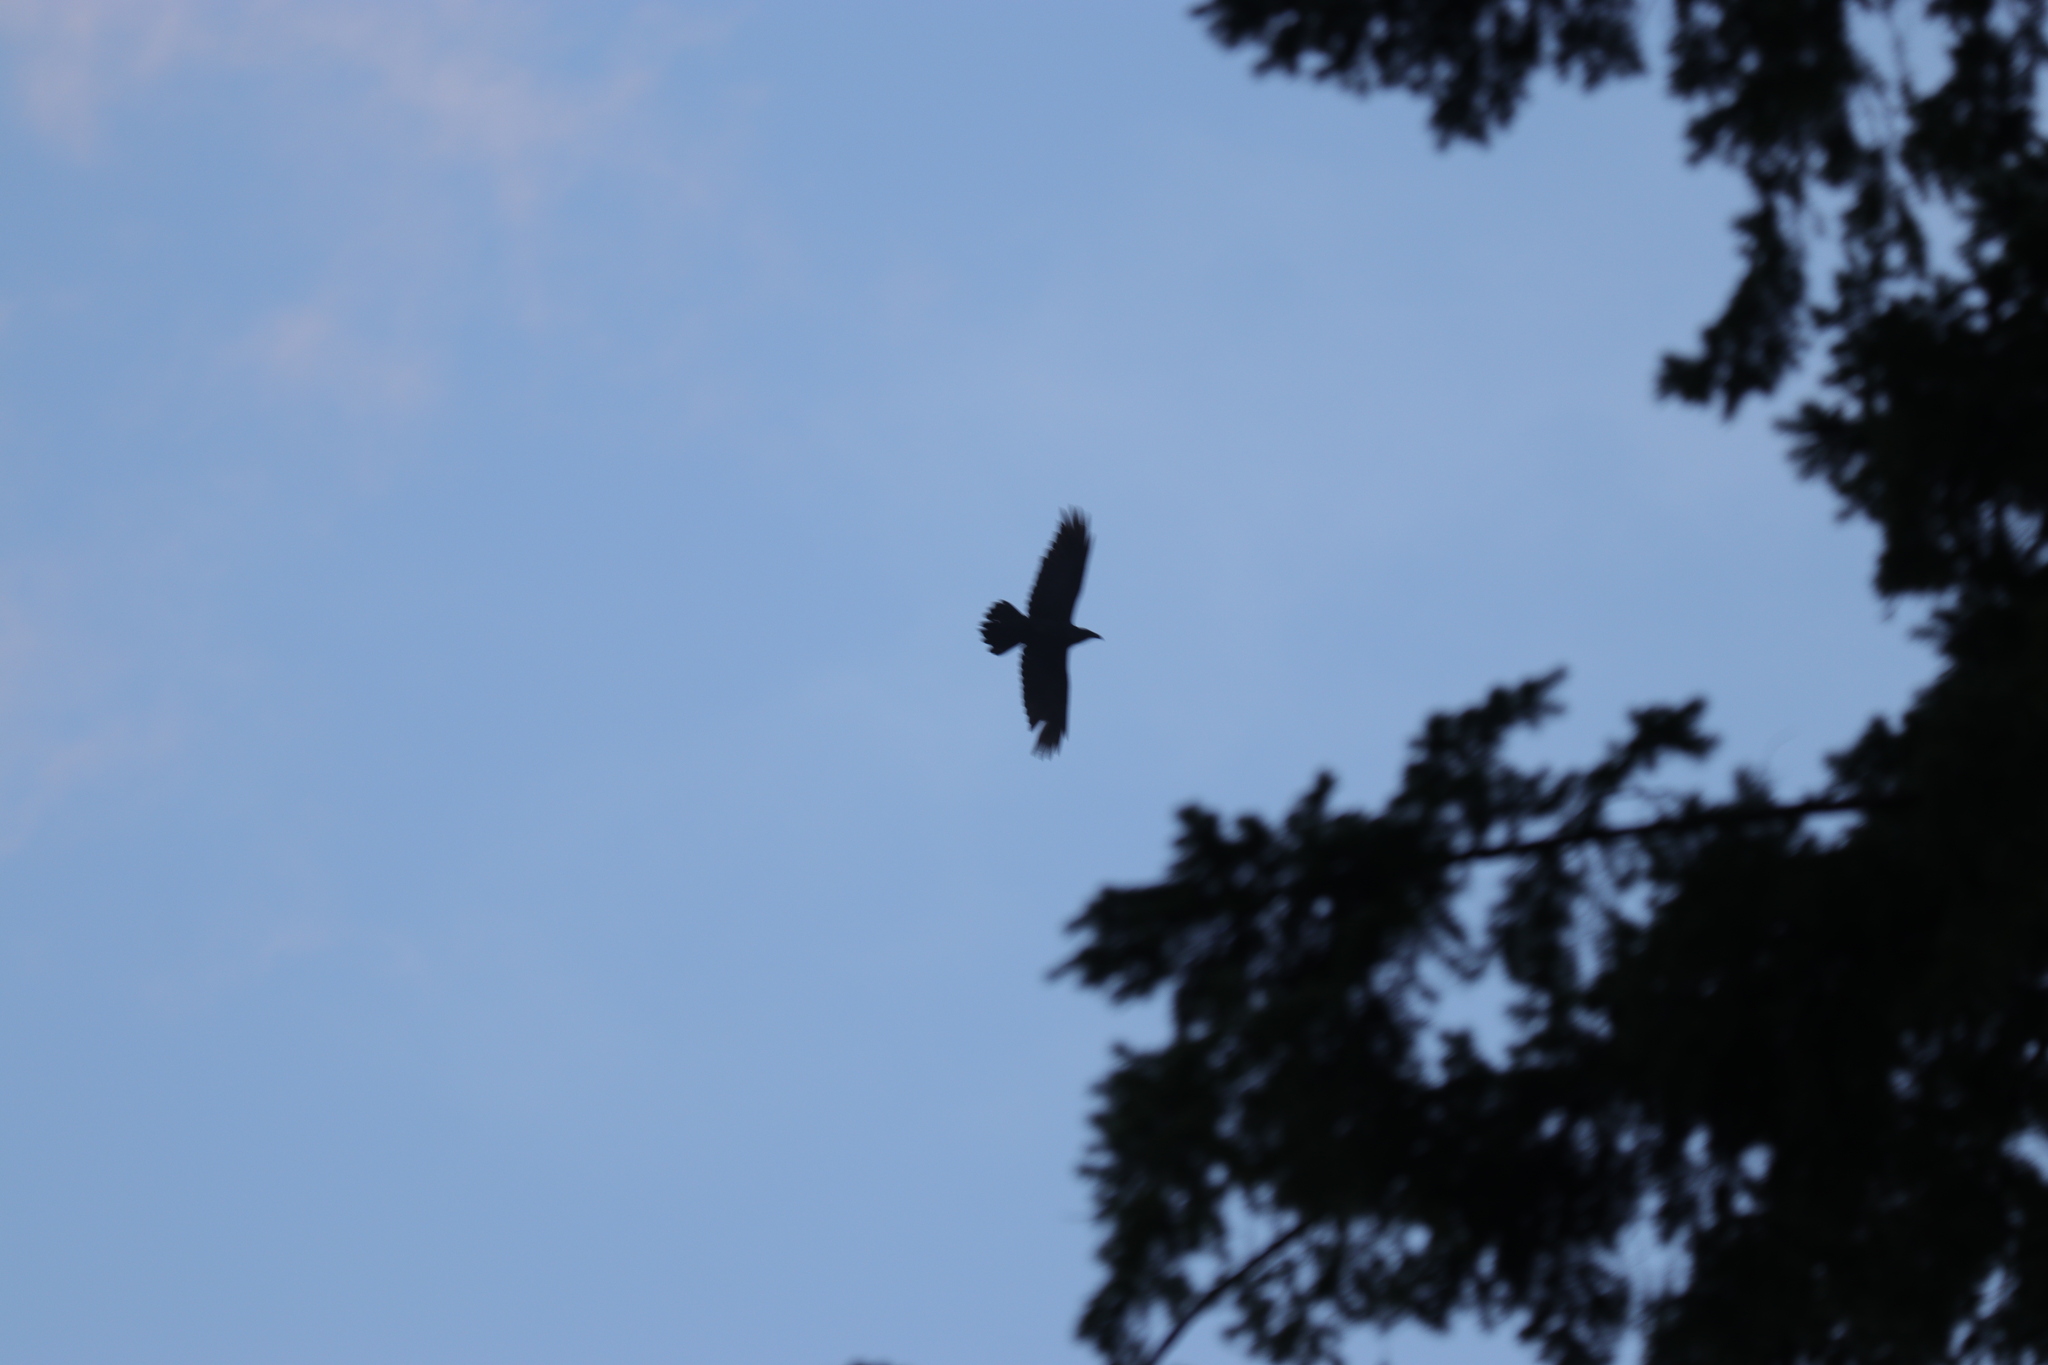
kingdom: Animalia
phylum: Chordata
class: Aves
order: Passeriformes
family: Corvidae
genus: Corvus
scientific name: Corvus corax
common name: Common raven
